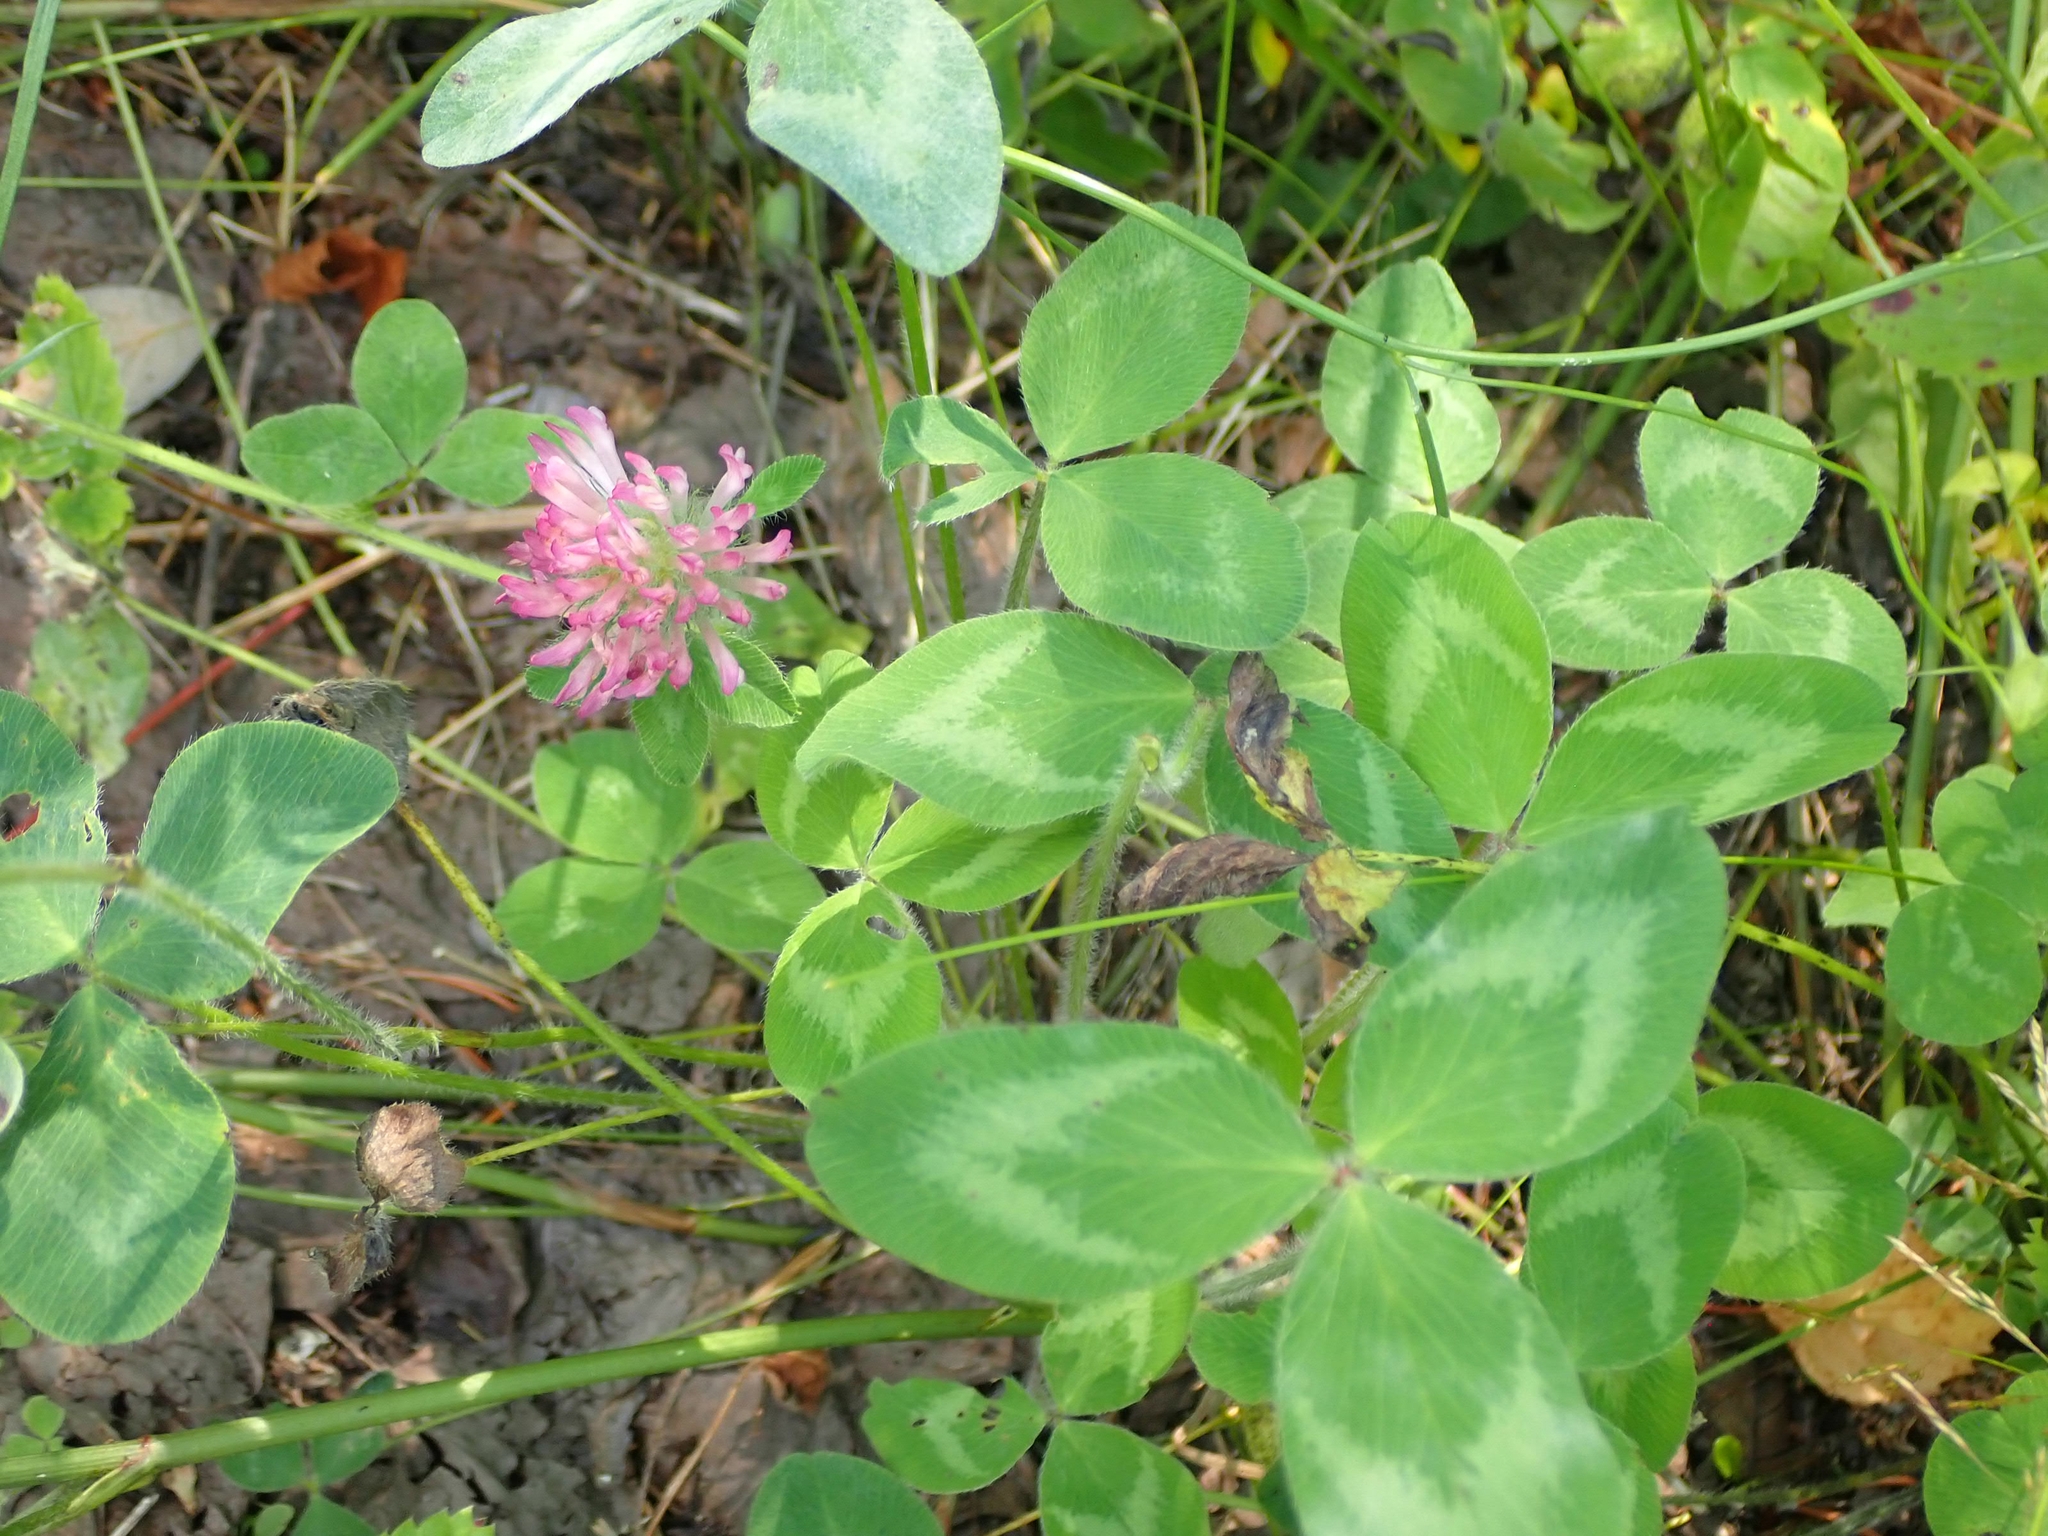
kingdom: Plantae
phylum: Tracheophyta
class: Magnoliopsida
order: Fabales
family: Fabaceae
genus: Trifolium
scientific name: Trifolium pratense
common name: Red clover
